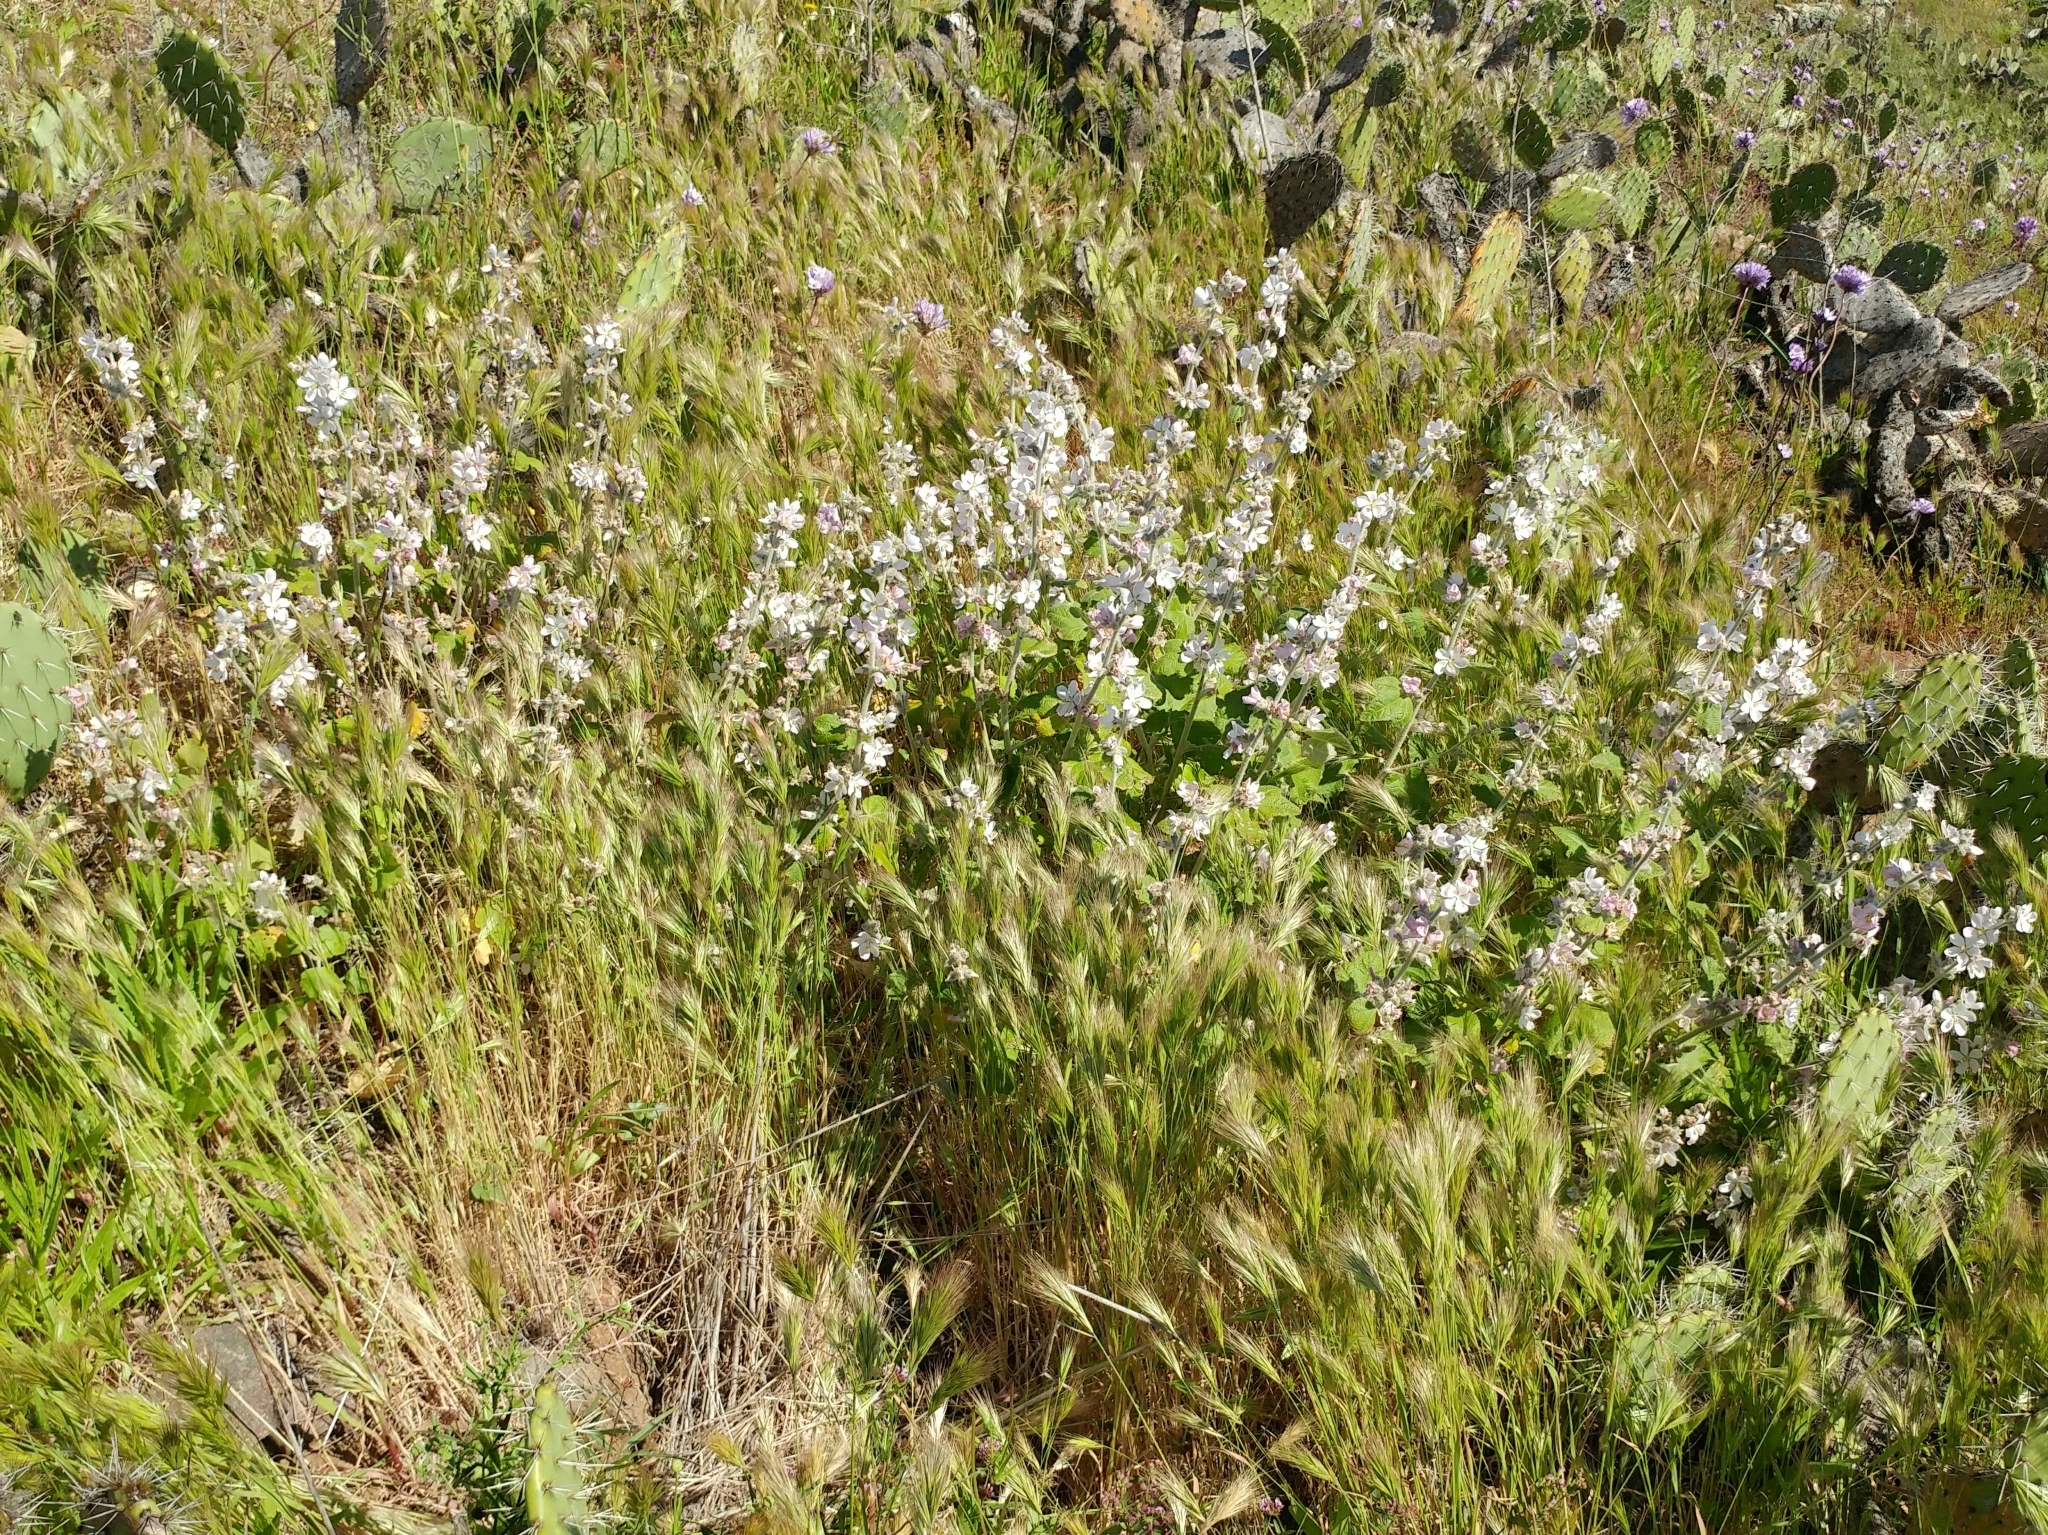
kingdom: Plantae
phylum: Tracheophyta
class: Magnoliopsida
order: Malvales
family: Malvaceae
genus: Malacothamnus
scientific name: Malacothamnus clementinus
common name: San clemente island bush-mallow
